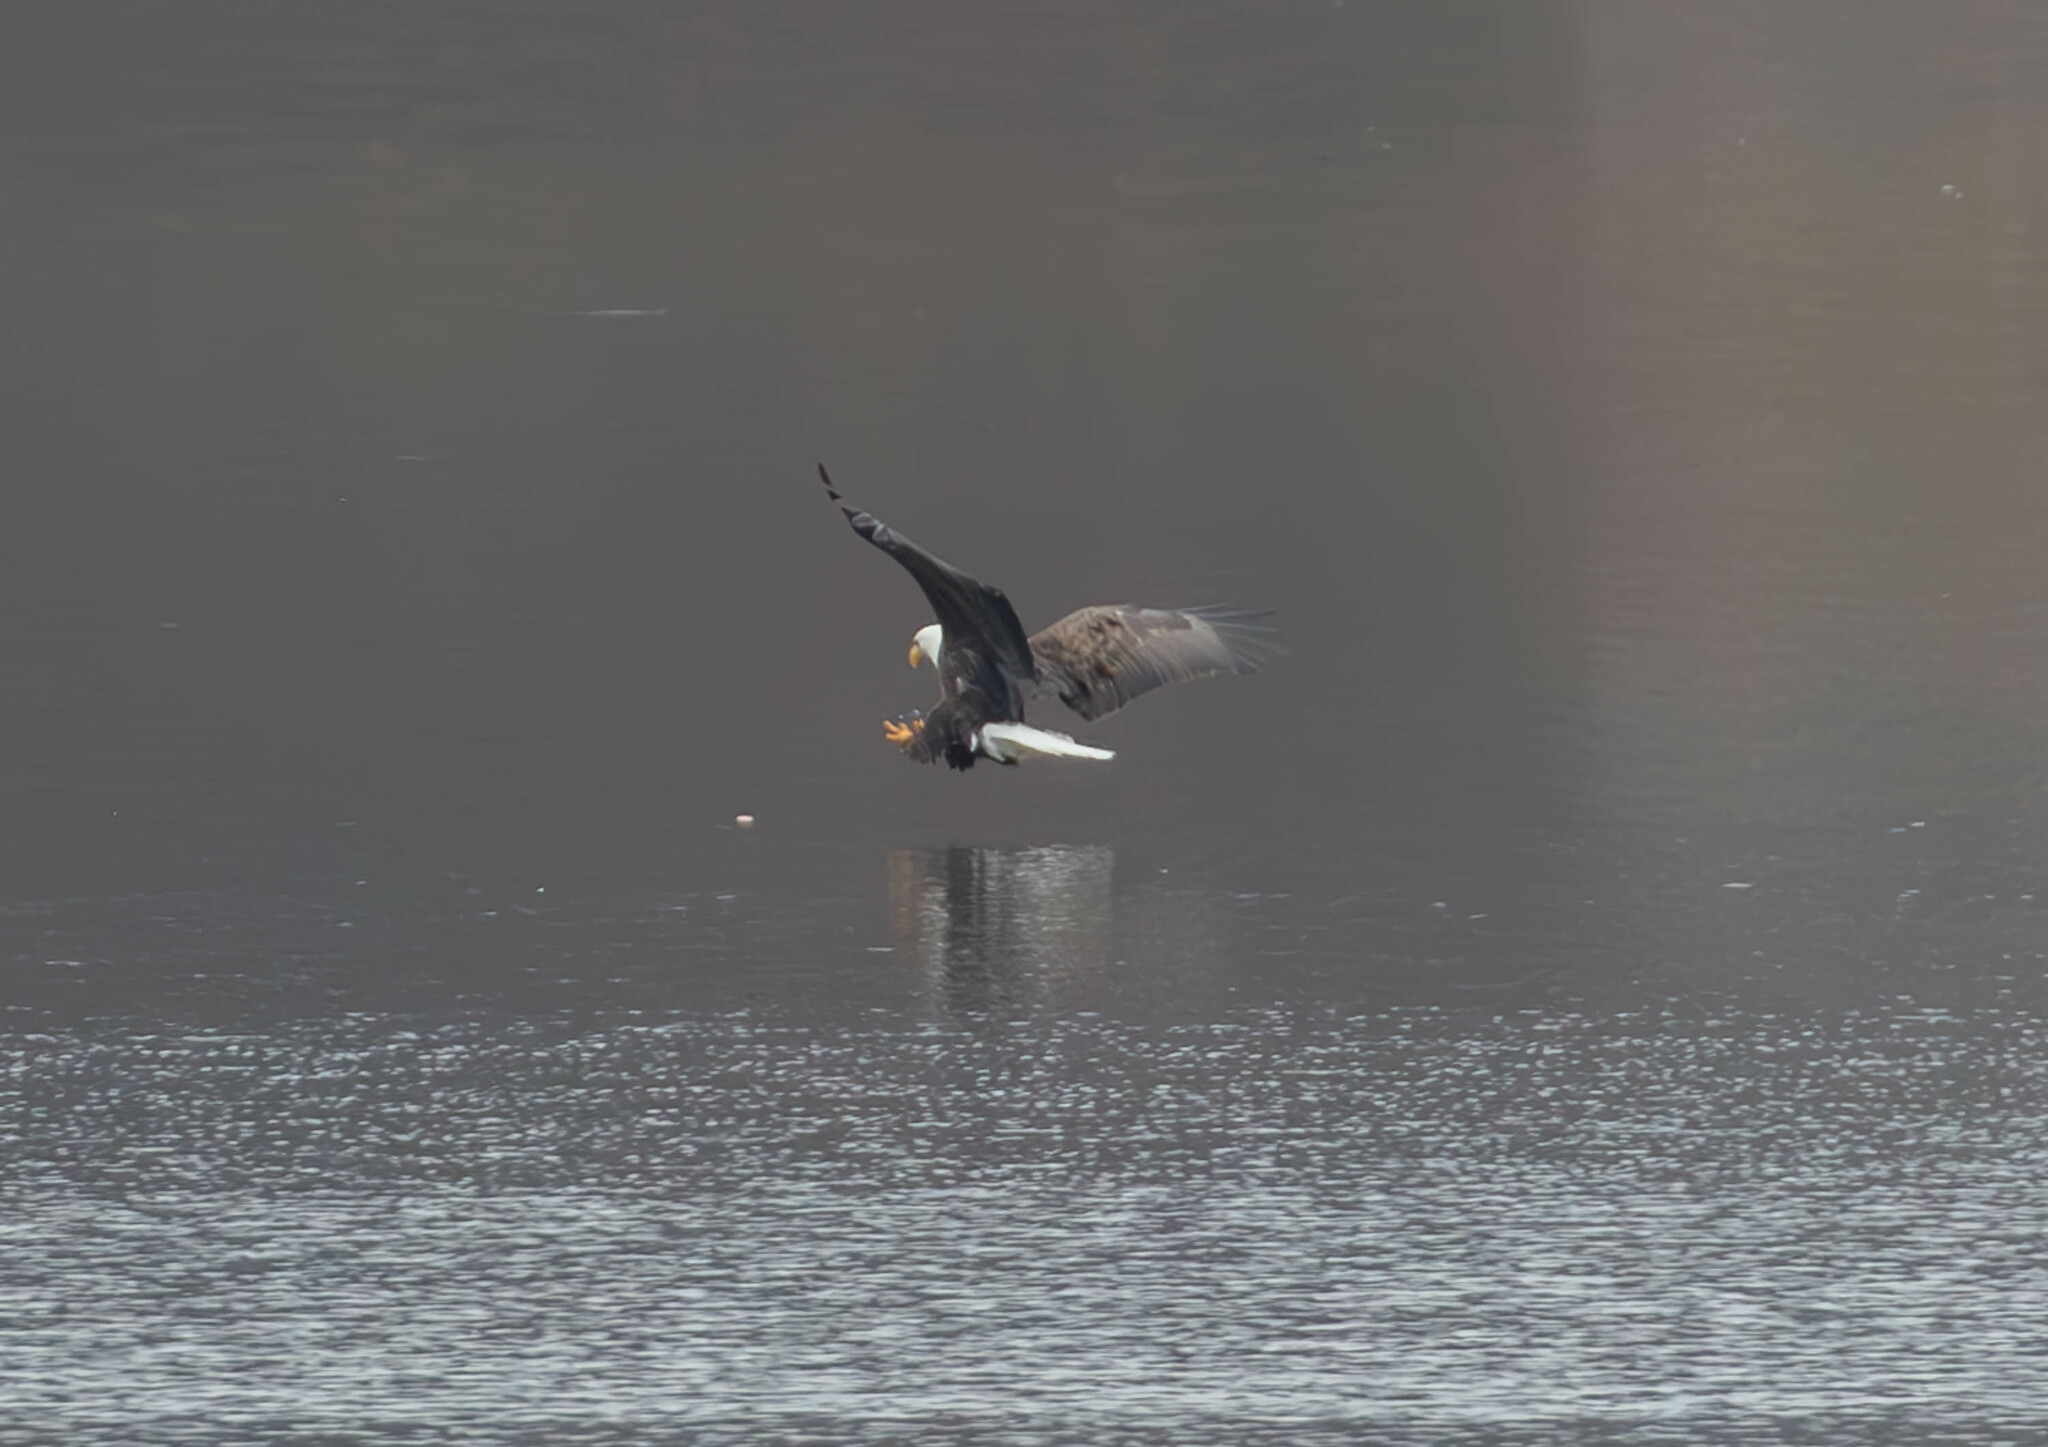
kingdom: Animalia
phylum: Chordata
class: Aves
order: Accipitriformes
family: Accipitridae
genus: Haliaeetus
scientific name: Haliaeetus leucocephalus
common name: Bald eagle
